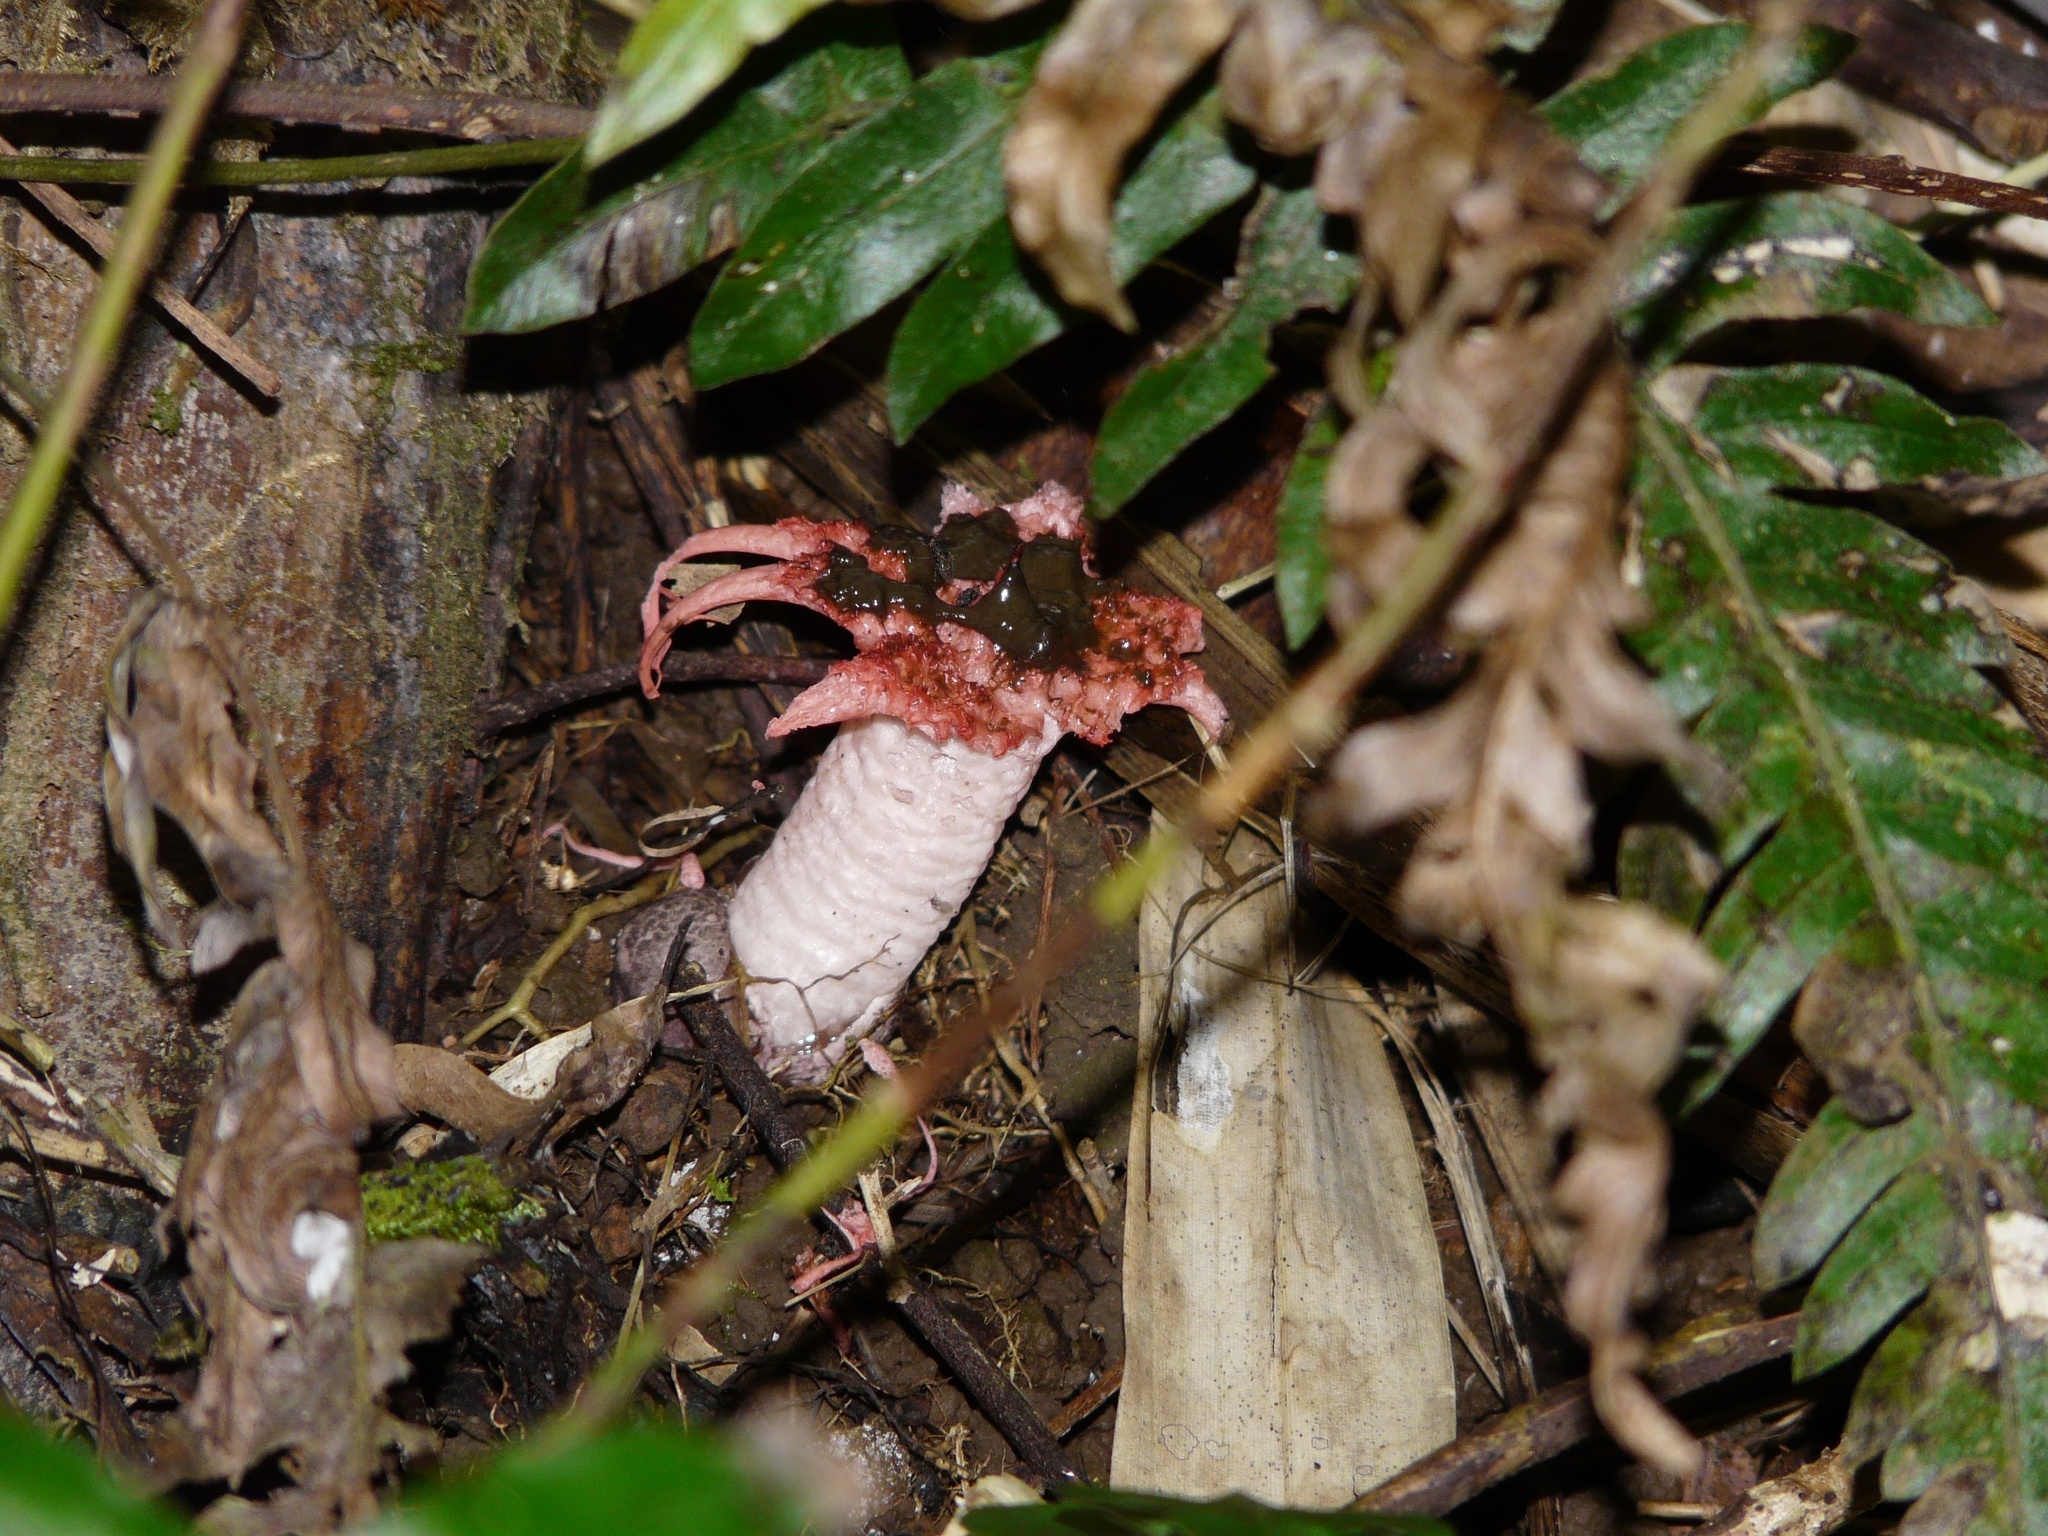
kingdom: Fungi
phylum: Basidiomycota
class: Agaricomycetes
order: Phallales
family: Phallaceae
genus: Aseroe
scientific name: Aseroe rubra
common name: Starfish fungus
